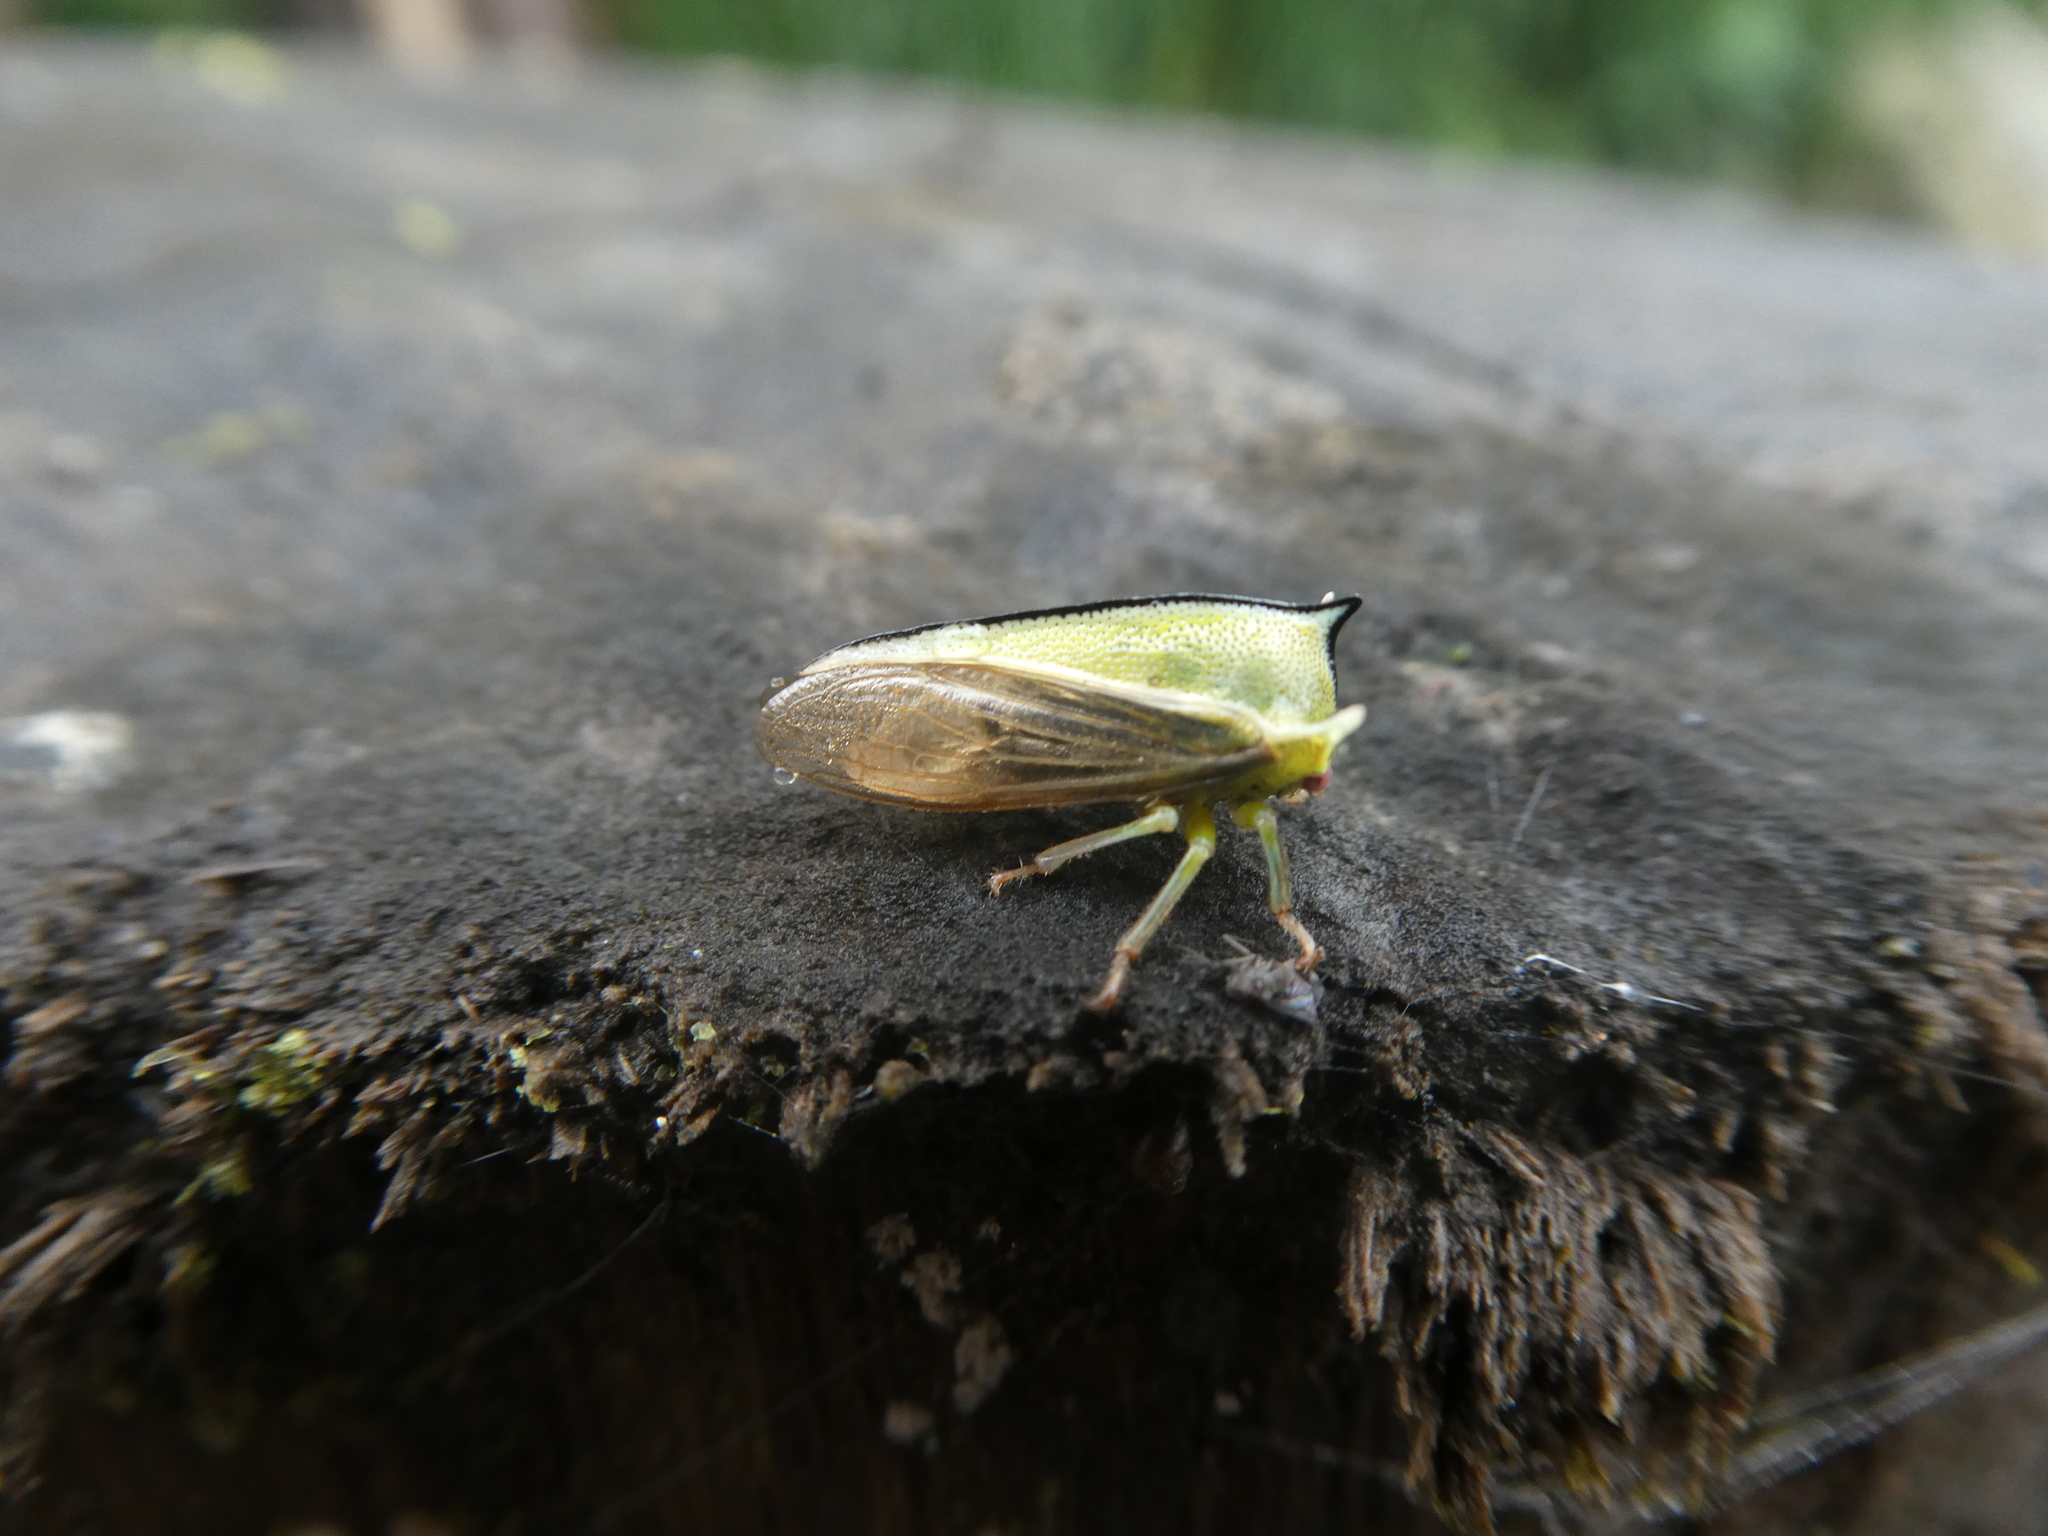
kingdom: Animalia
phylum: Arthropoda
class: Insecta
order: Hemiptera
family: Membracidae
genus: Alchisme
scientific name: Alchisme tridentata
